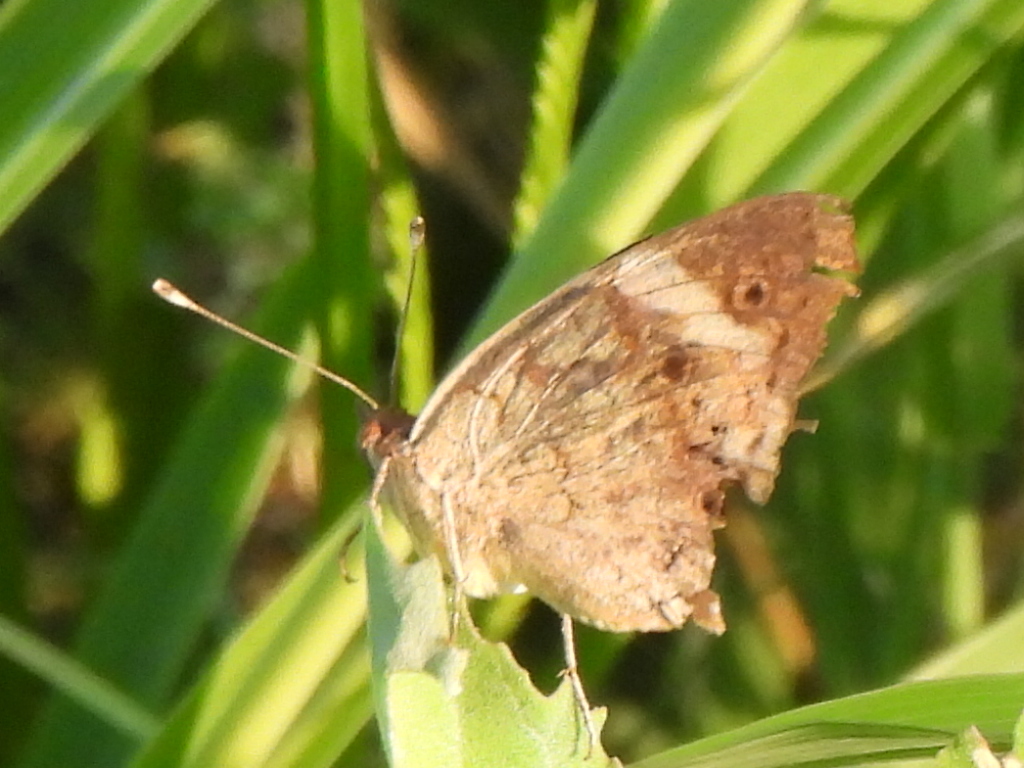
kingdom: Animalia
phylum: Arthropoda
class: Insecta
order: Lepidoptera
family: Nymphalidae
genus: Junonia
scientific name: Junonia coenia
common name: Common buckeye
